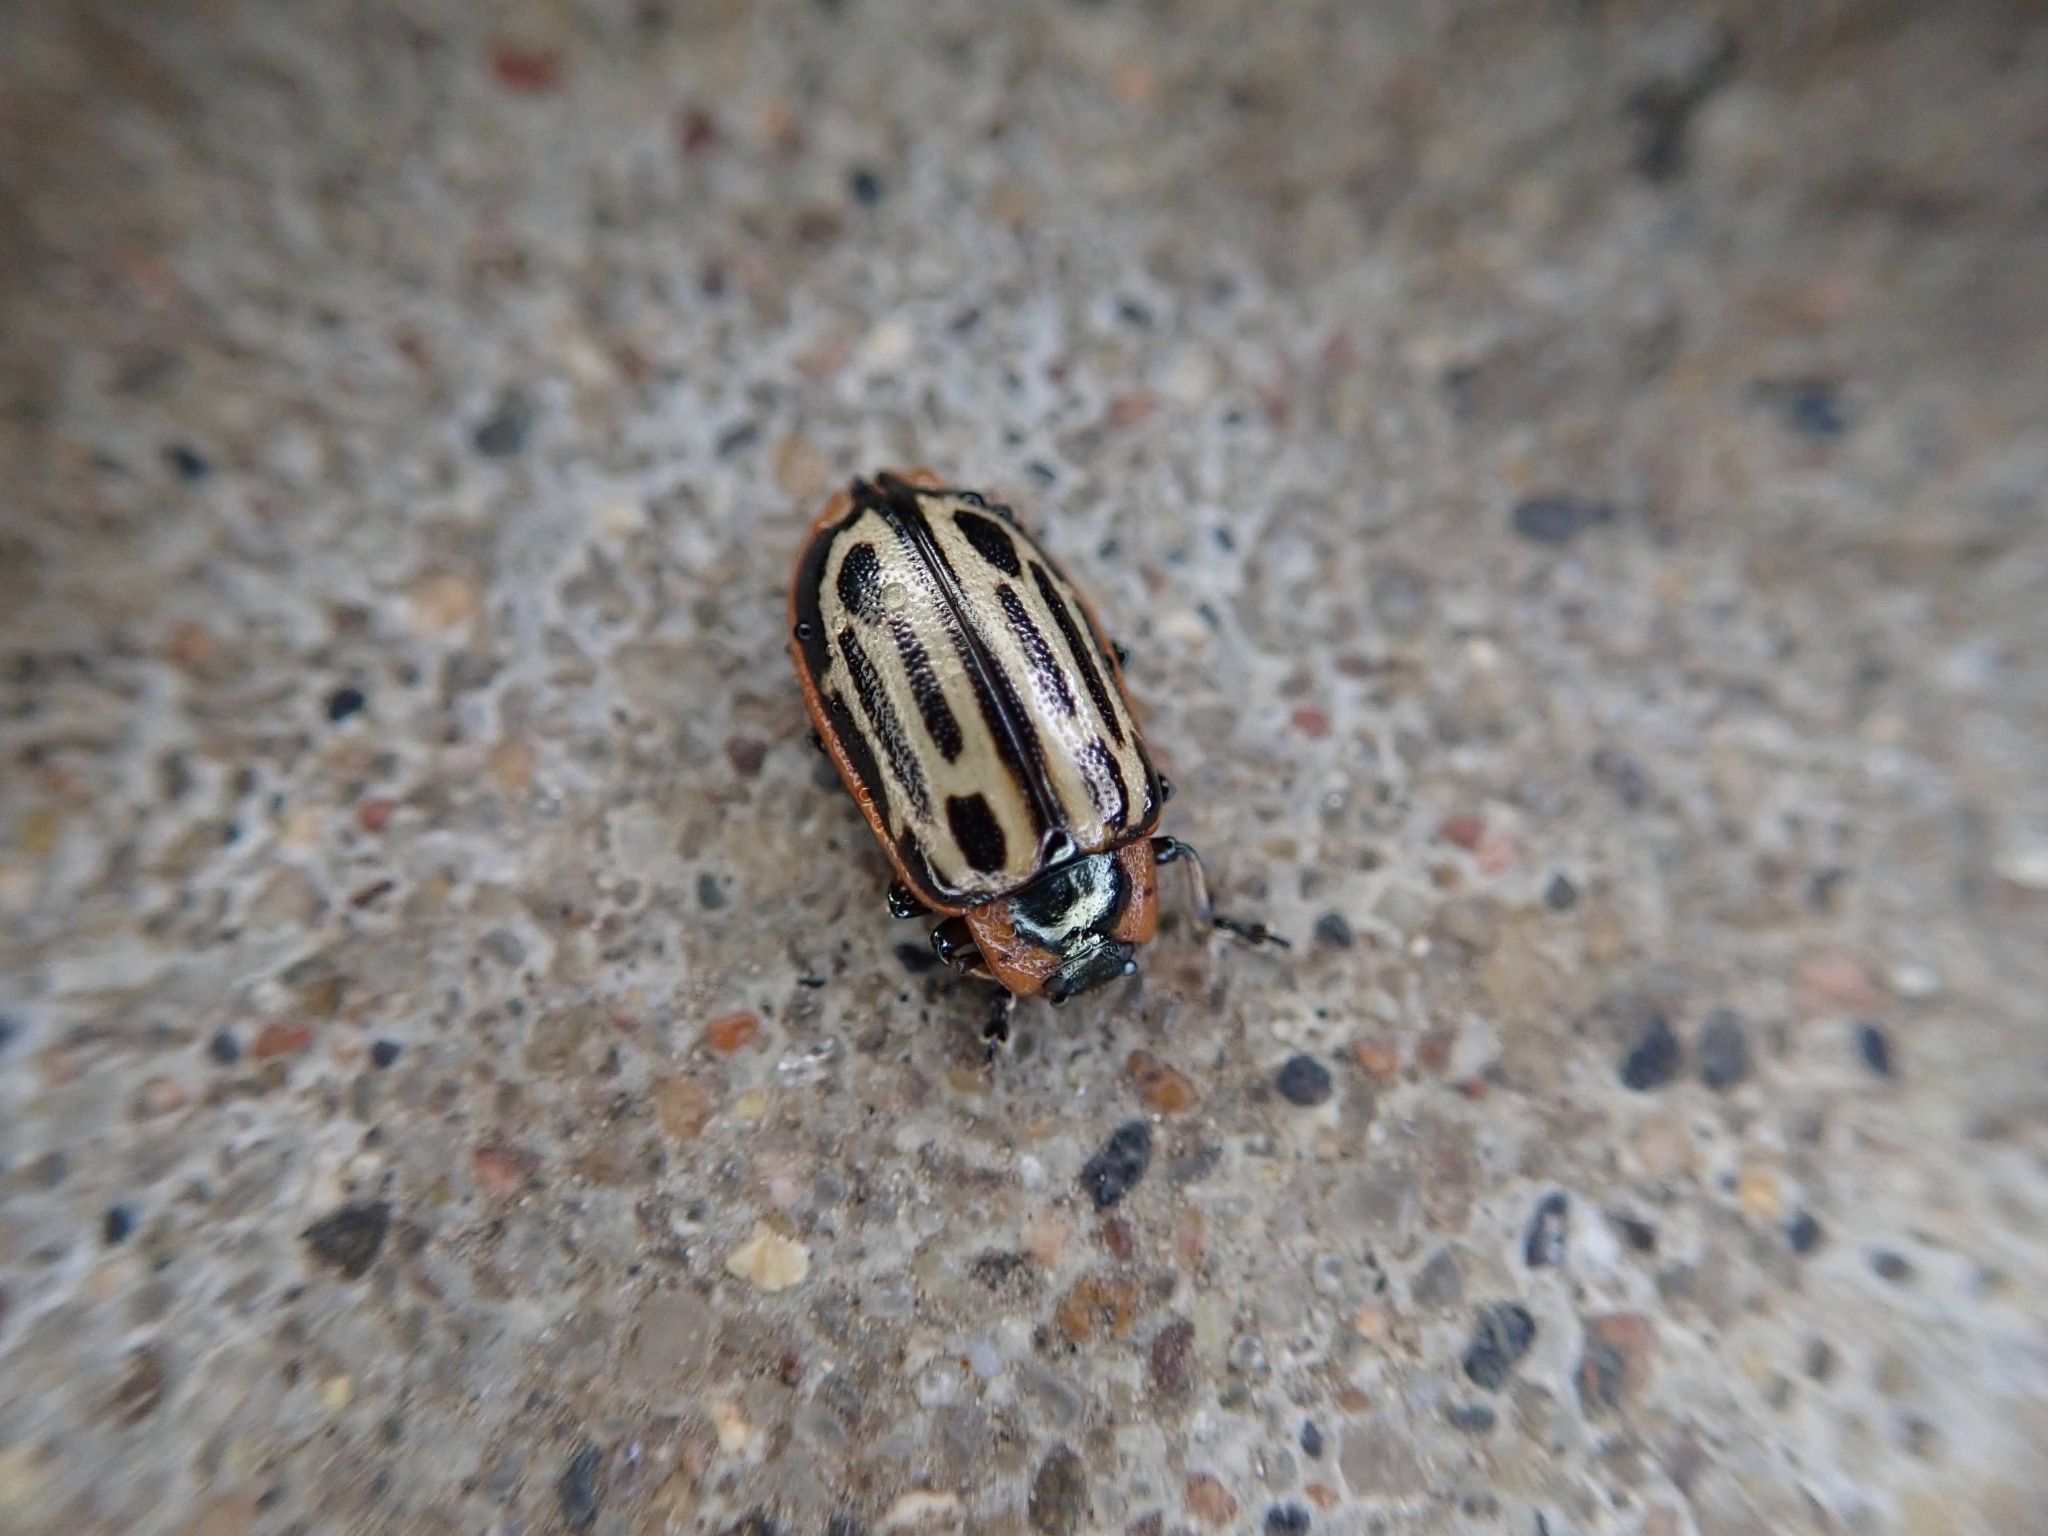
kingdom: Animalia
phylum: Arthropoda
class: Insecta
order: Coleoptera
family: Chrysomelidae
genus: Aethiopocassis
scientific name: Aethiopocassis scripta
